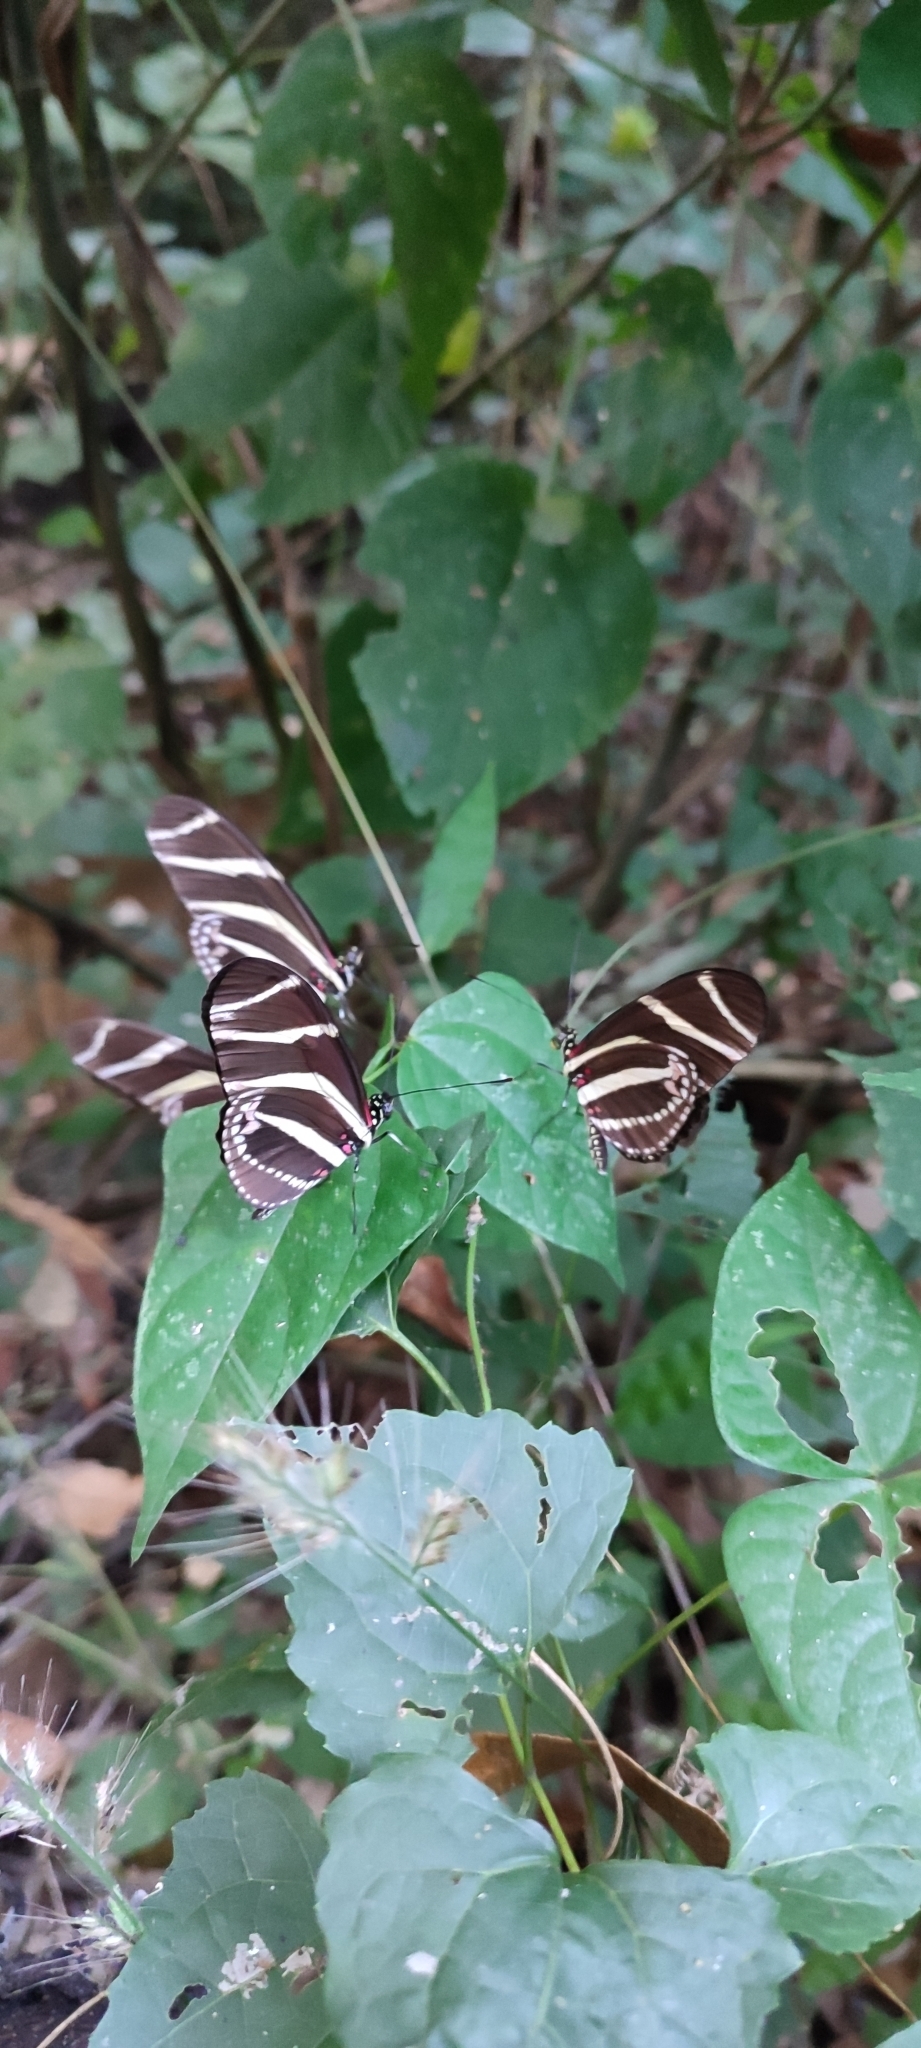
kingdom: Animalia
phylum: Arthropoda
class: Insecta
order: Lepidoptera
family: Nymphalidae
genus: Heliconius
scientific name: Heliconius charithonia
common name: Zebra long wing
